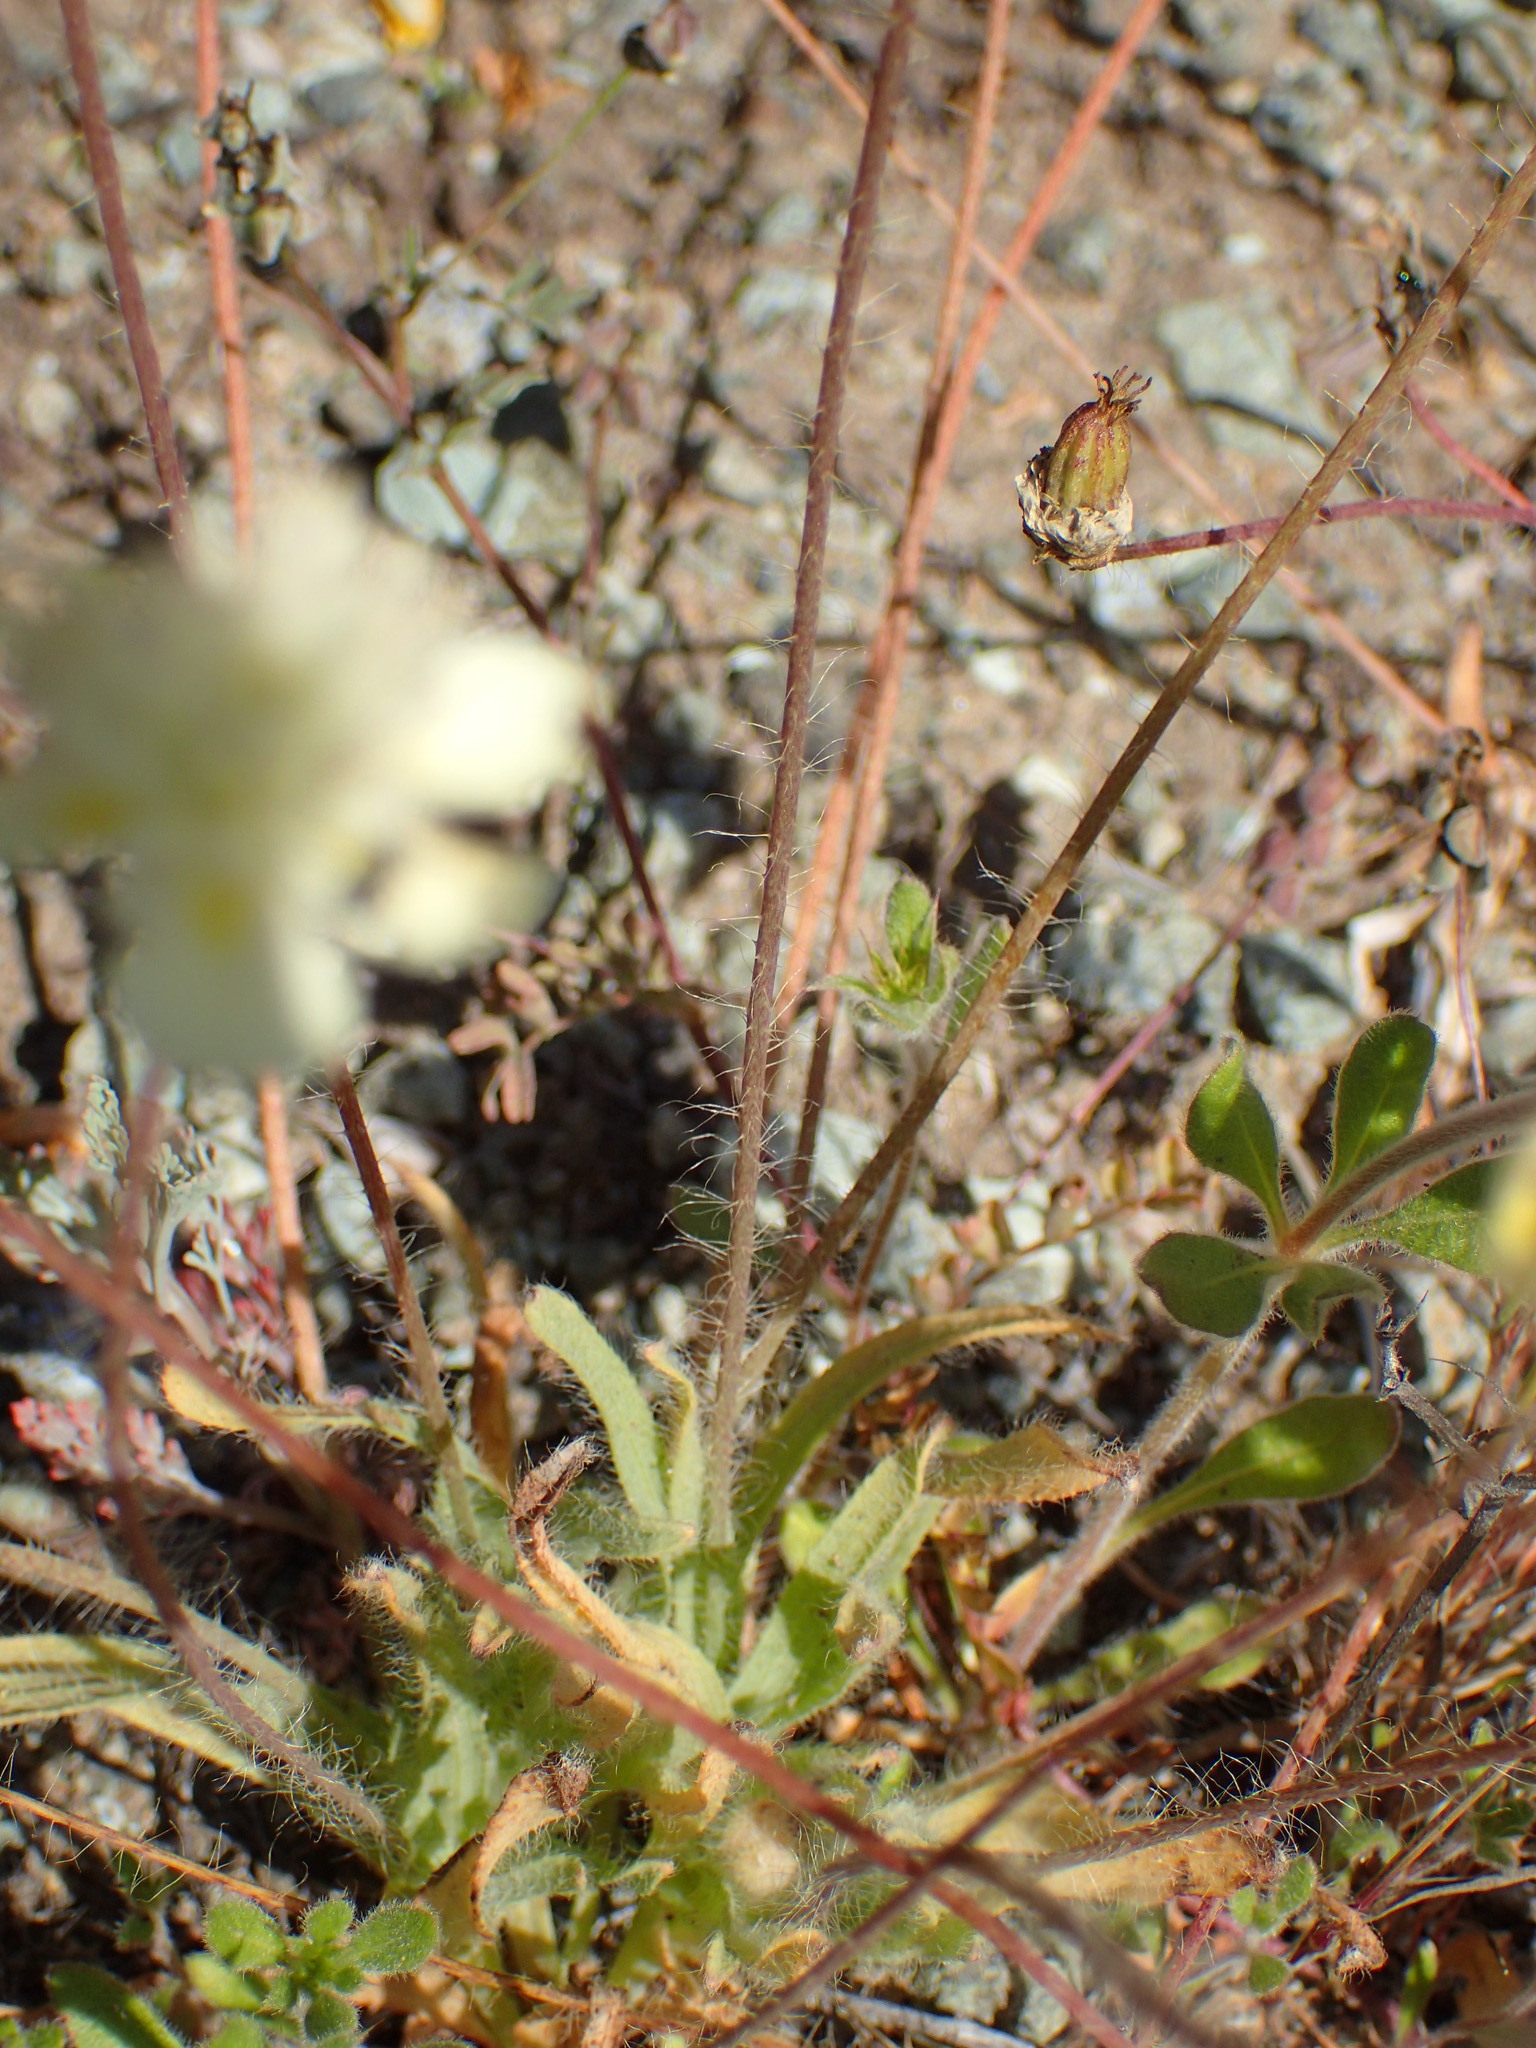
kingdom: Plantae
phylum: Tracheophyta
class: Magnoliopsida
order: Ranunculales
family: Papaveraceae
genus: Platystemon
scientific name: Platystemon californicus
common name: Cream-cups
